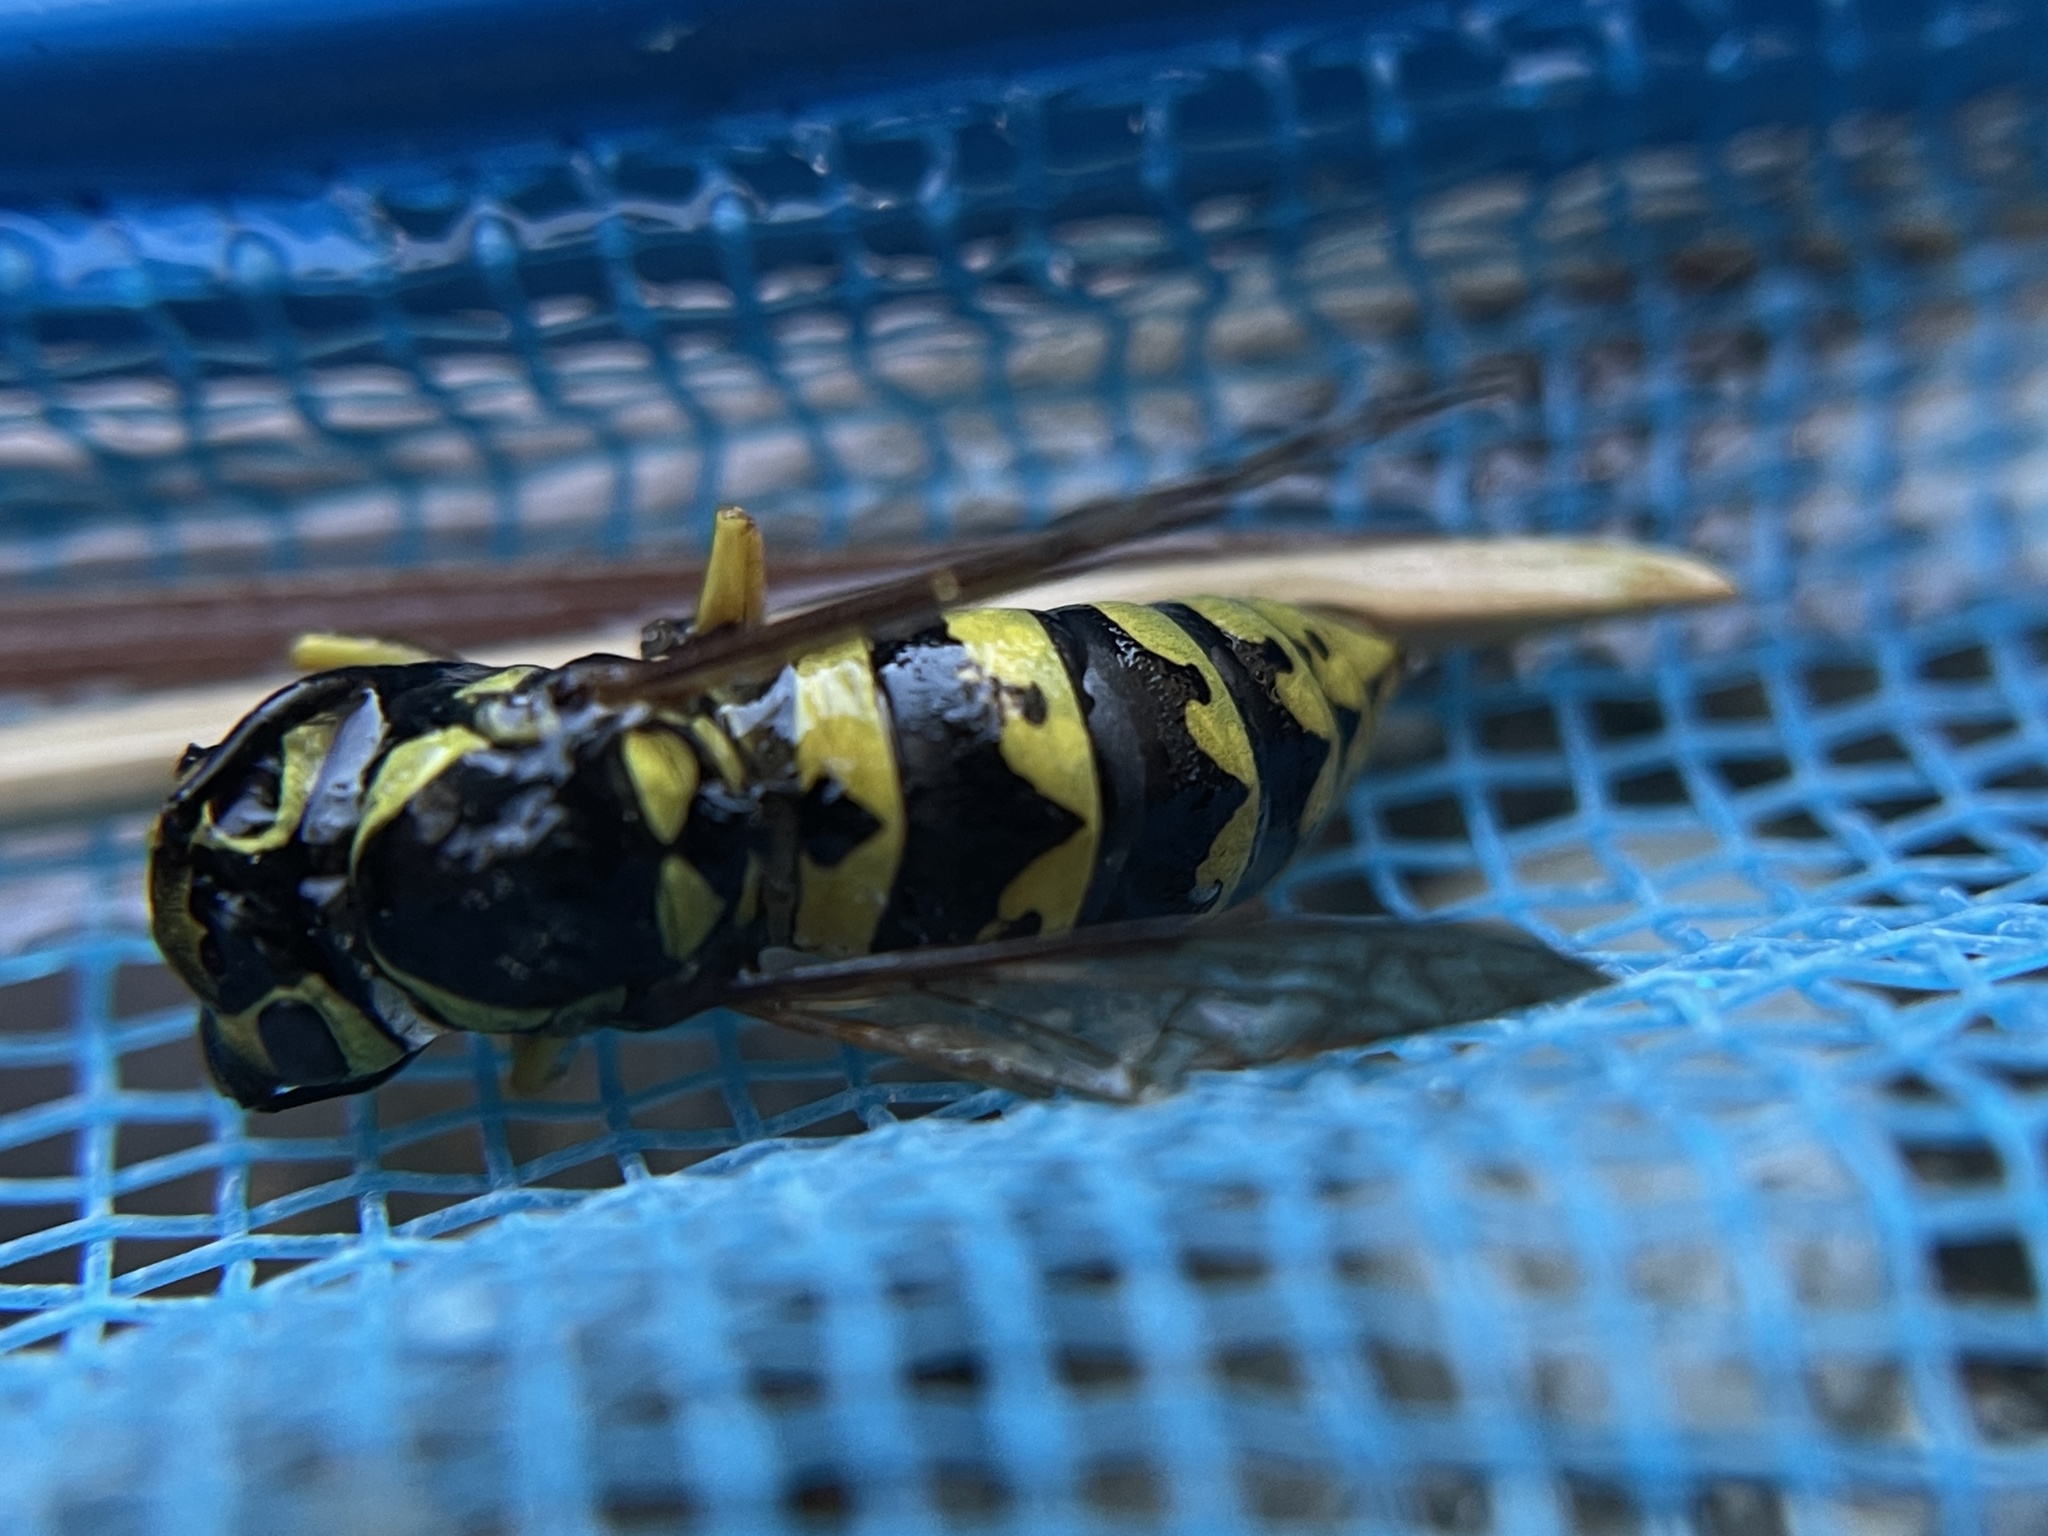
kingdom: Animalia
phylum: Arthropoda
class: Insecta
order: Hymenoptera
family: Vespidae
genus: Vespula
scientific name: Vespula pensylvanica
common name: Western yellowjacket
